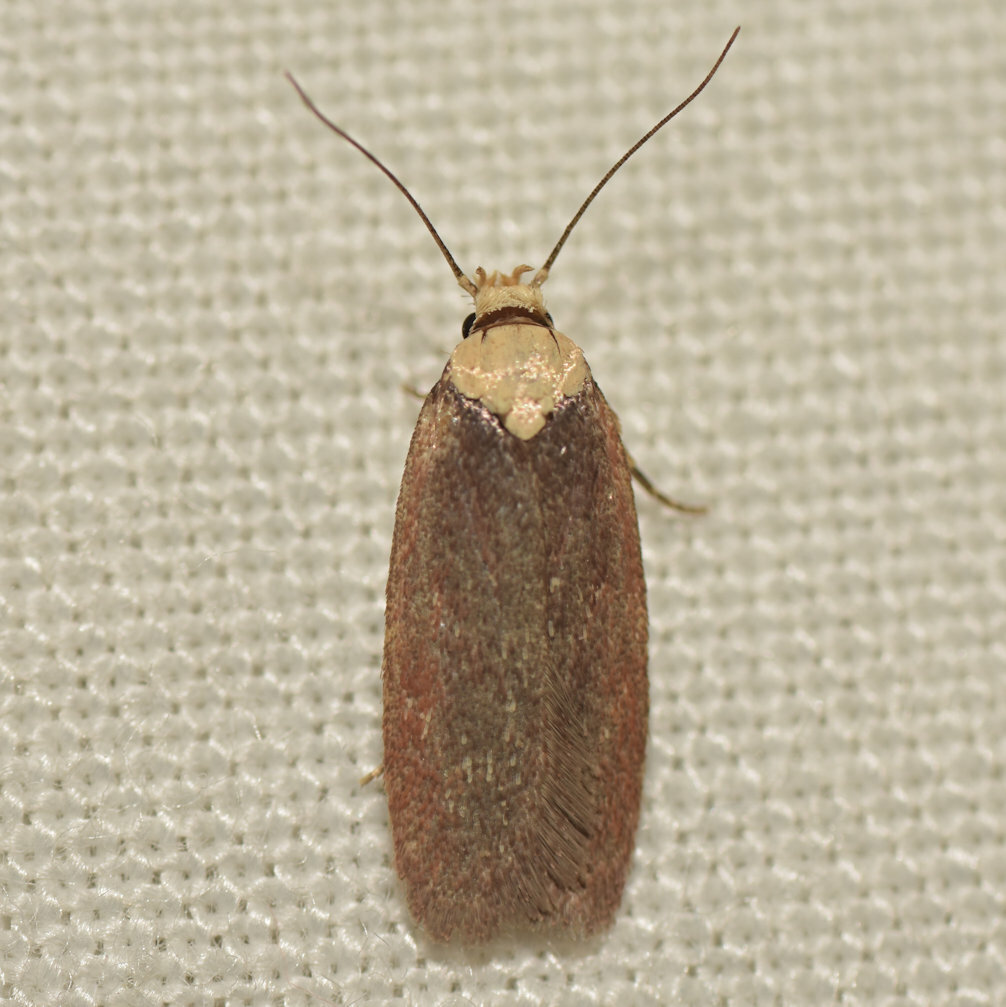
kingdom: Animalia
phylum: Arthropoda
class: Insecta
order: Lepidoptera
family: Depressariidae
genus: Depressaria
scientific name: Depressaria depressana
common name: Lost flat-body
